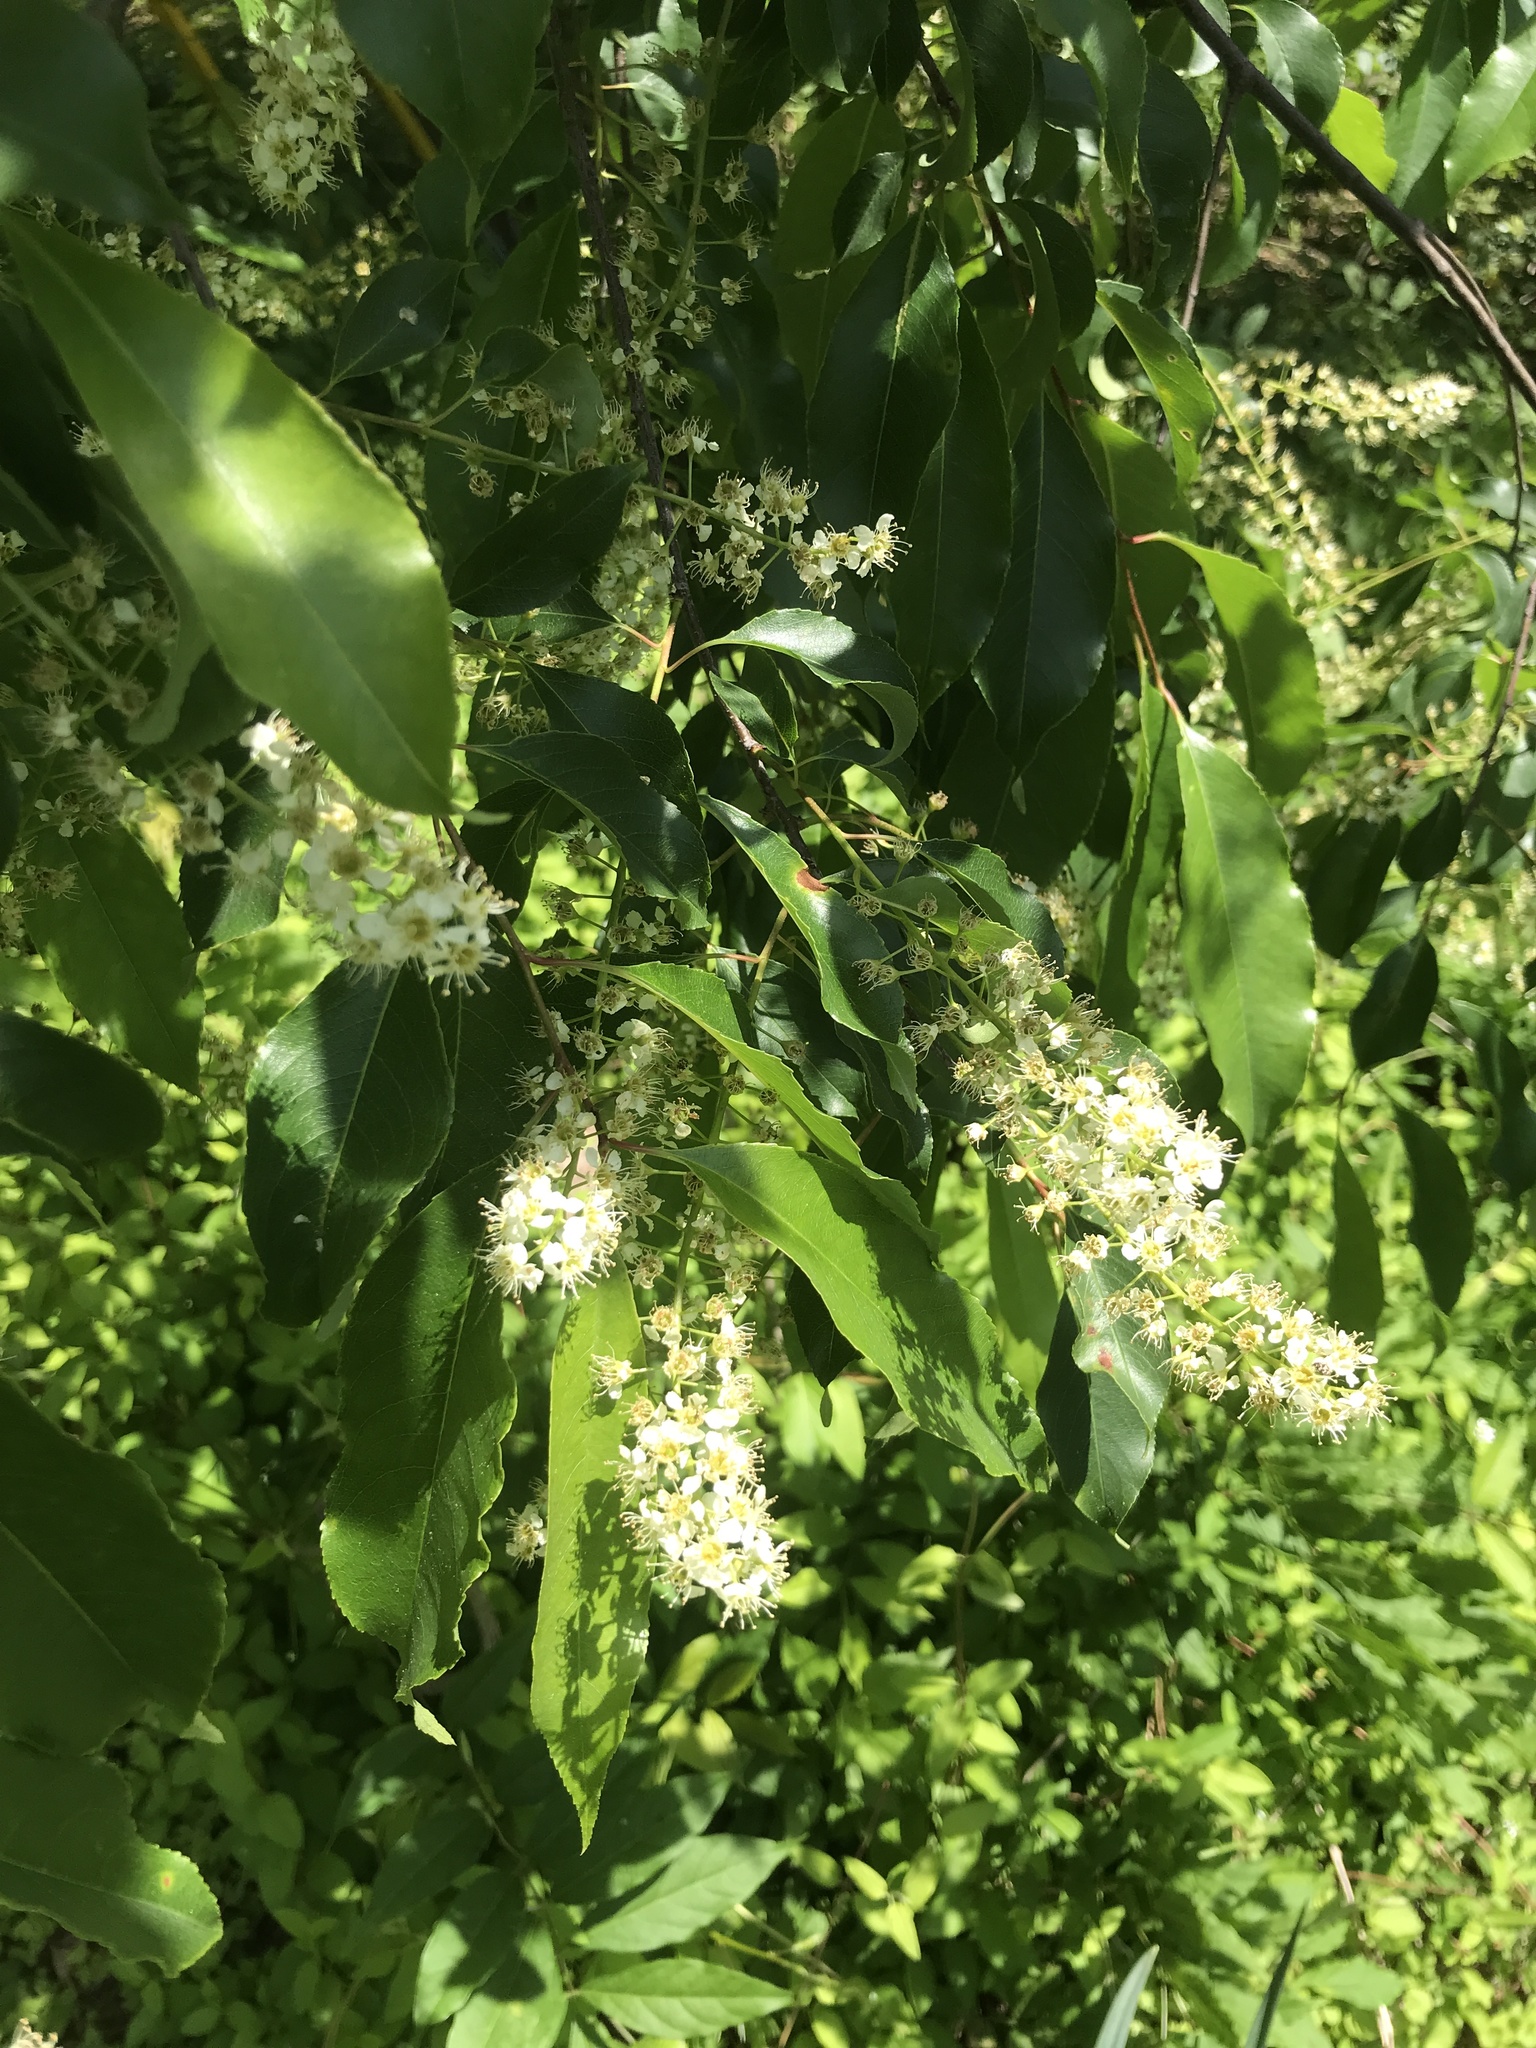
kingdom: Plantae
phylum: Tracheophyta
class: Magnoliopsida
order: Rosales
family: Rosaceae
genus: Prunus
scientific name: Prunus serotina
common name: Black cherry
